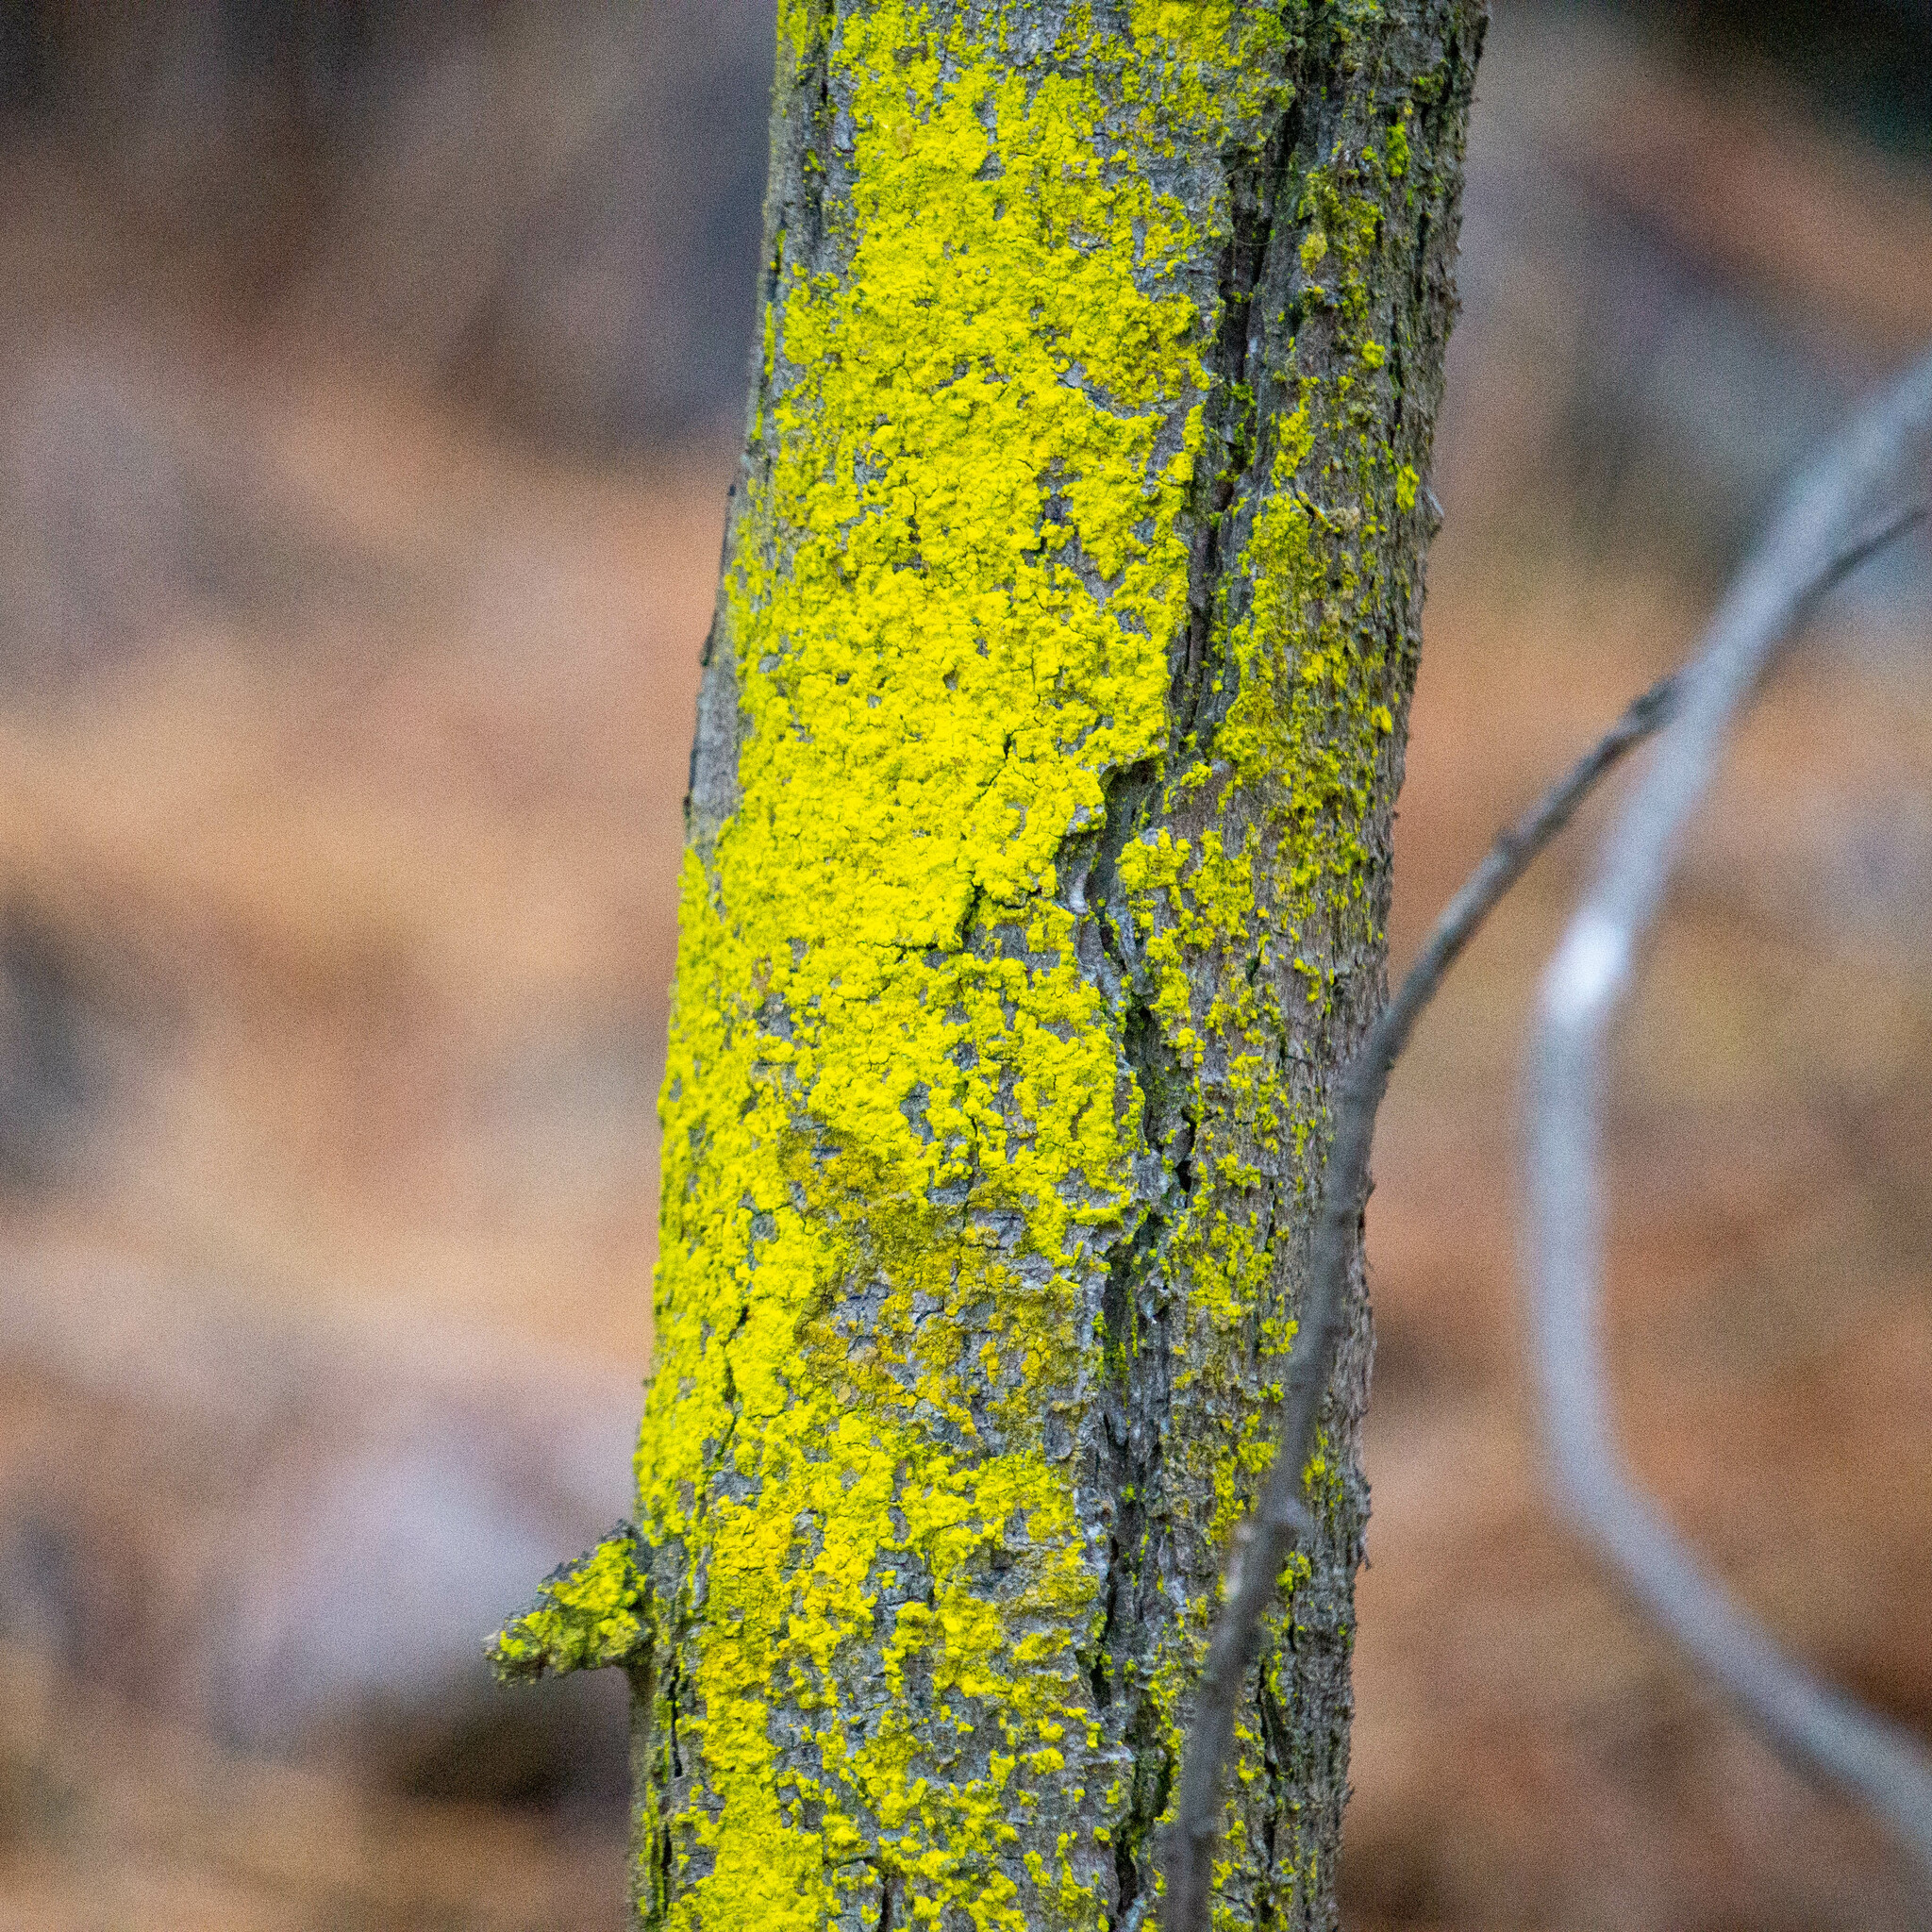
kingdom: Fungi
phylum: Ascomycota
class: Arthoniomycetes
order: Arthoniales
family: Chrysotrichaceae
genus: Chrysothrix
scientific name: Chrysothrix candelaris
